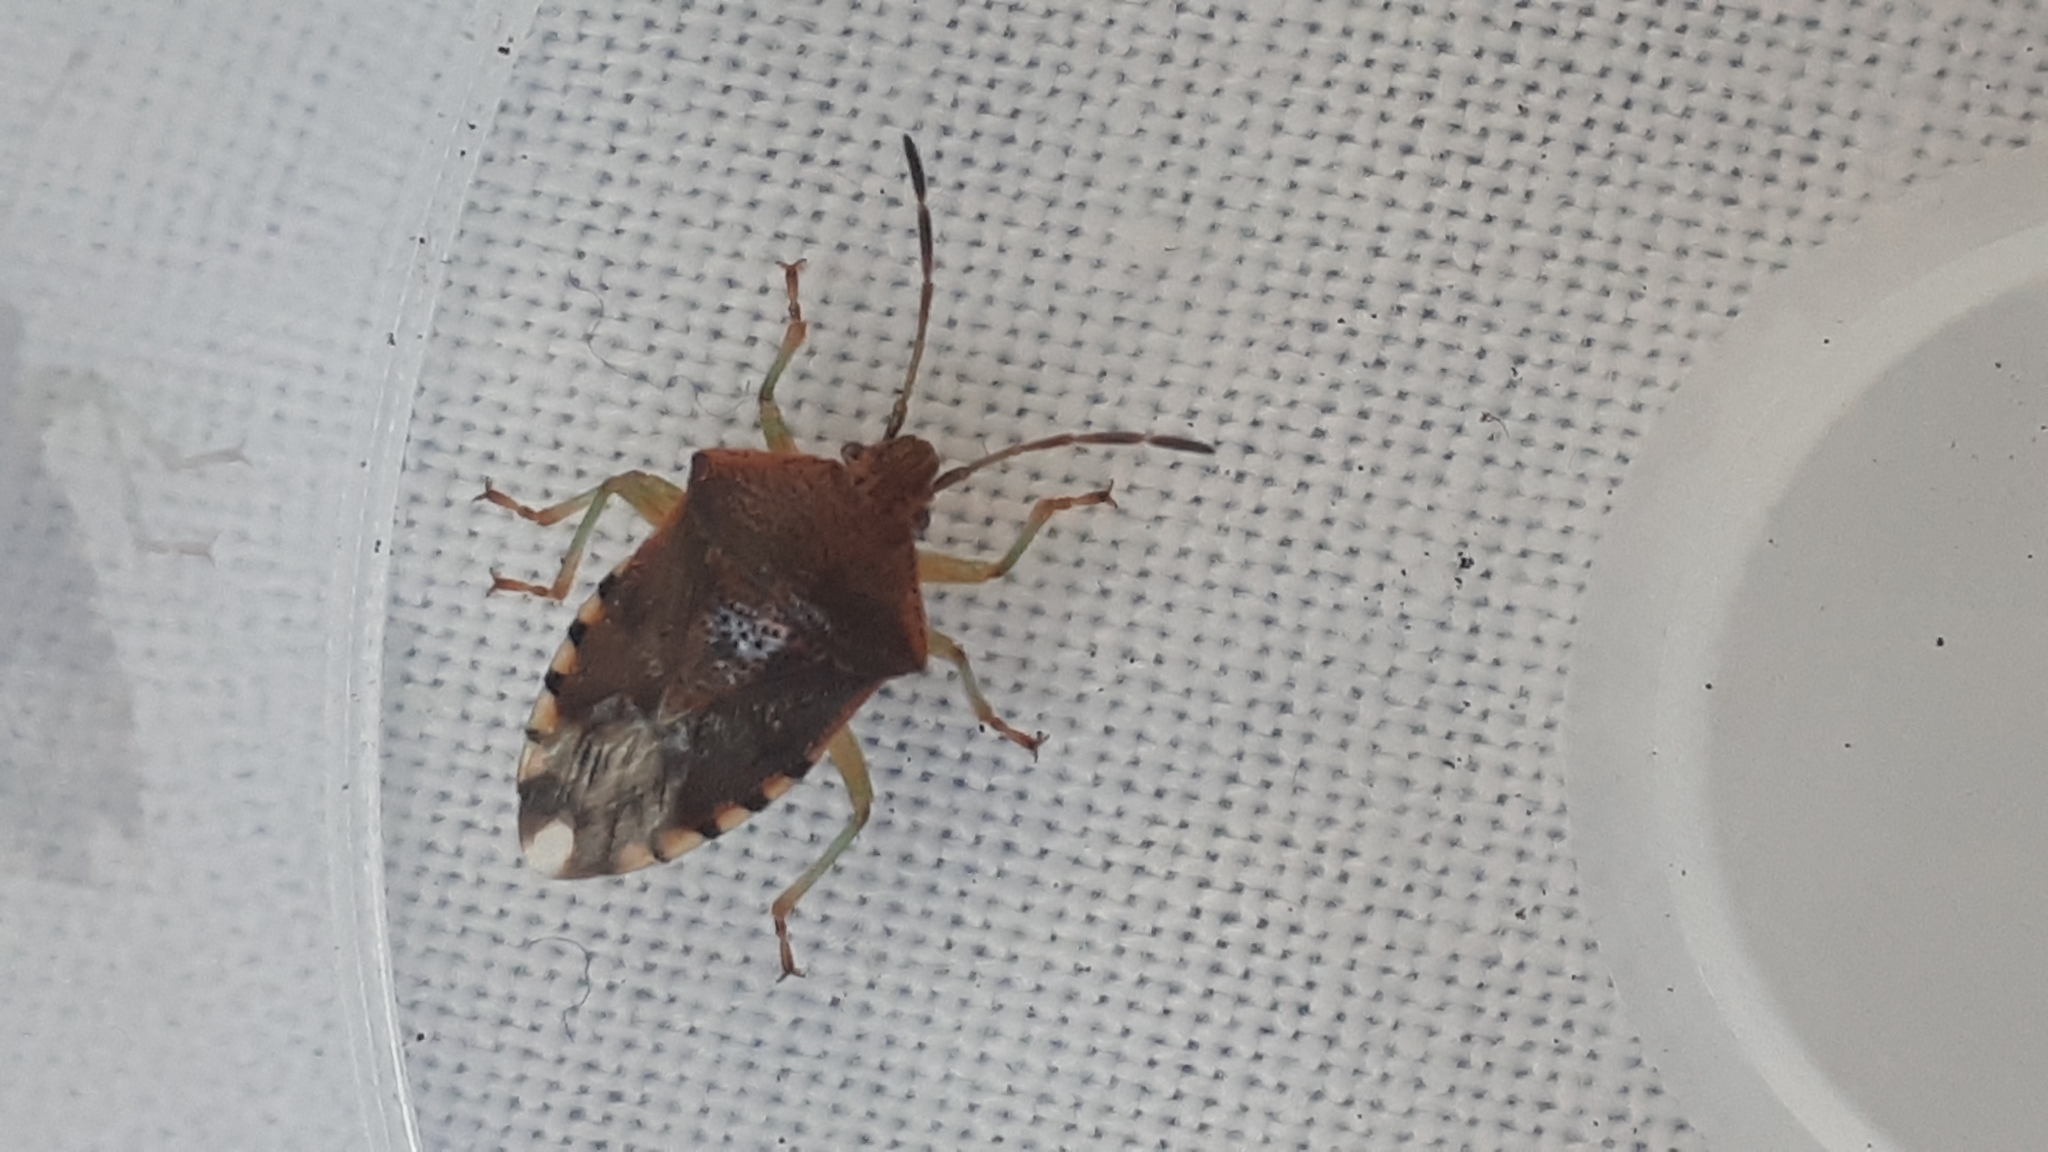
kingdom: Animalia
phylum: Arthropoda
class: Insecta
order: Hemiptera
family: Acanthosomatidae
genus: Elasmucha
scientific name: Elasmucha grisea
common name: Parent bug
